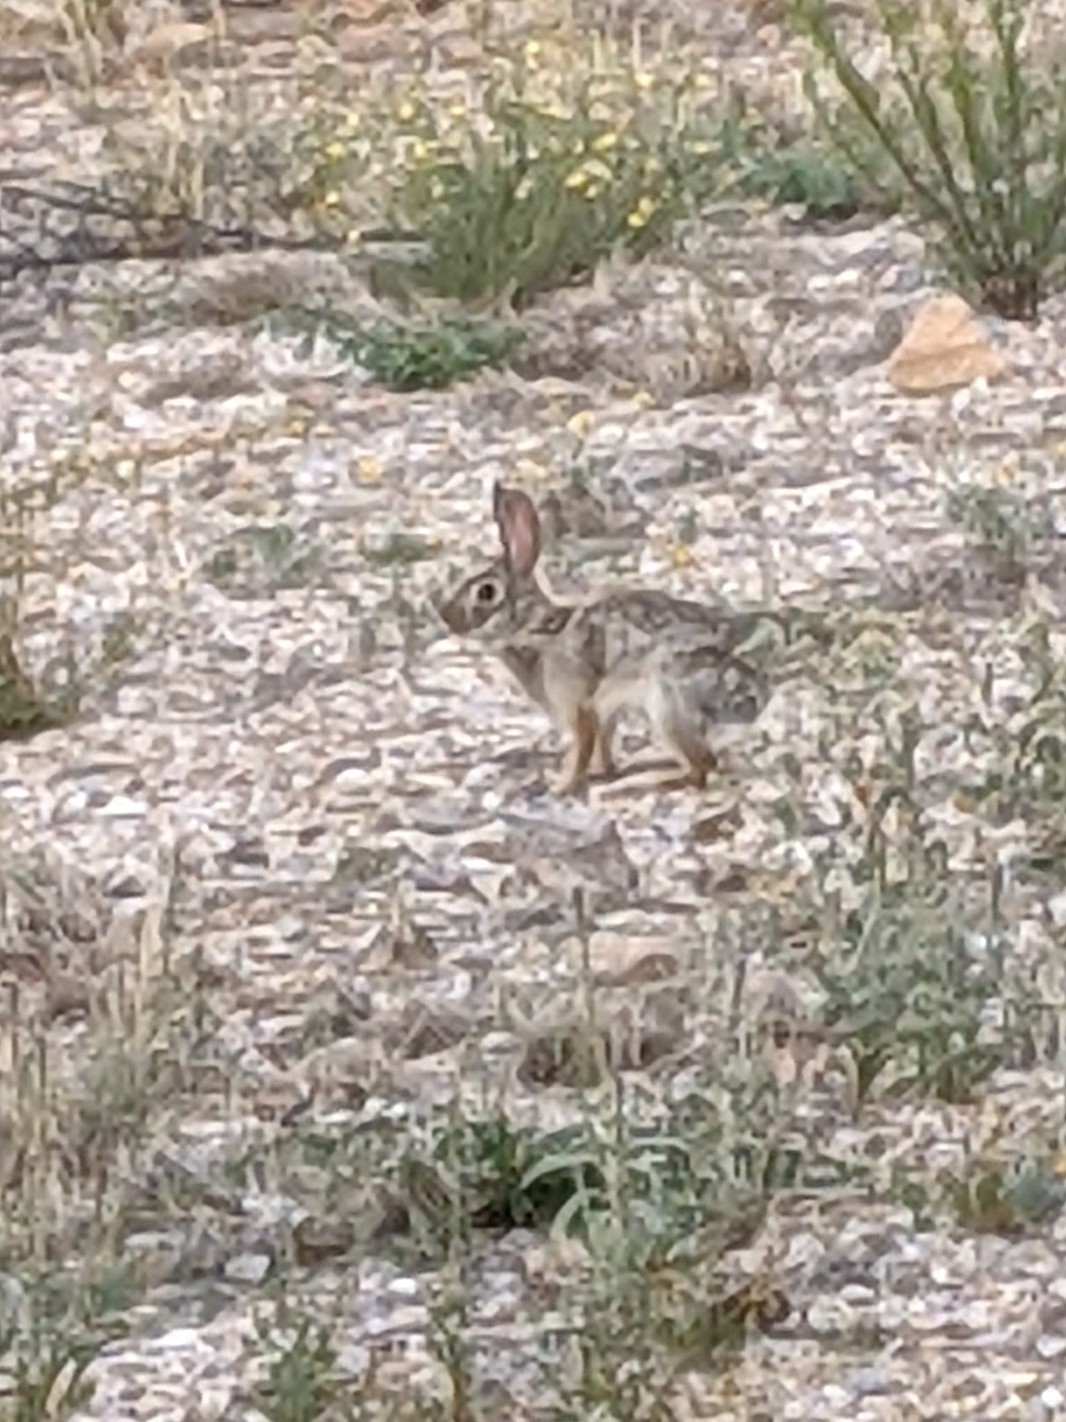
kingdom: Animalia
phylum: Chordata
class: Mammalia
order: Lagomorpha
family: Leporidae
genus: Sylvilagus
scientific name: Sylvilagus audubonii
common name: Desert cottontail
